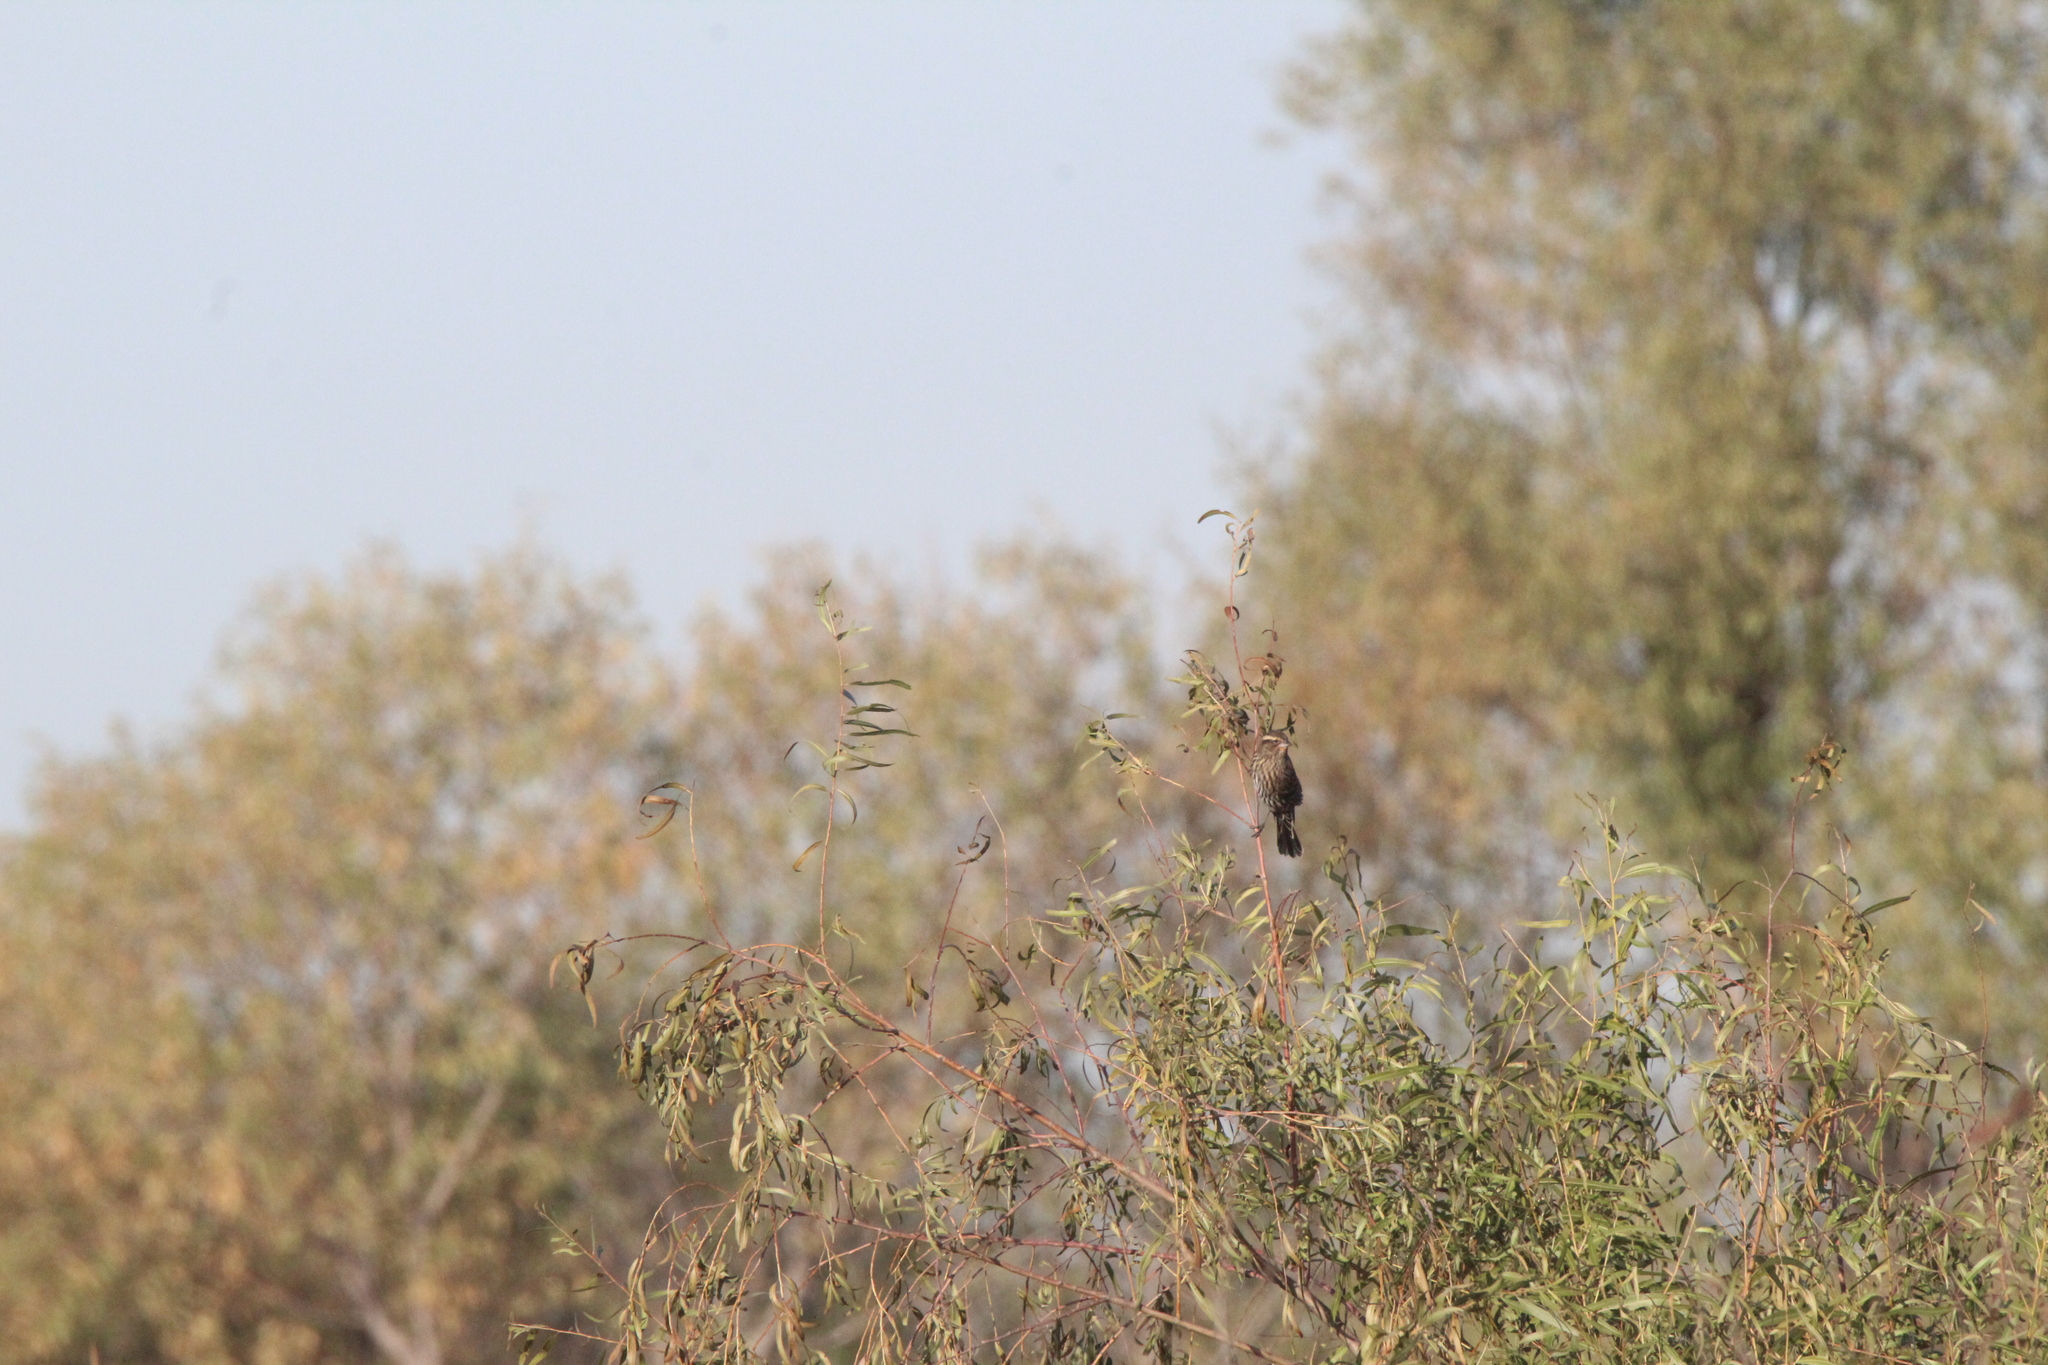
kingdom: Animalia
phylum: Chordata
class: Aves
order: Passeriformes
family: Icteridae
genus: Agelaius
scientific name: Agelaius phoeniceus
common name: Red-winged blackbird
